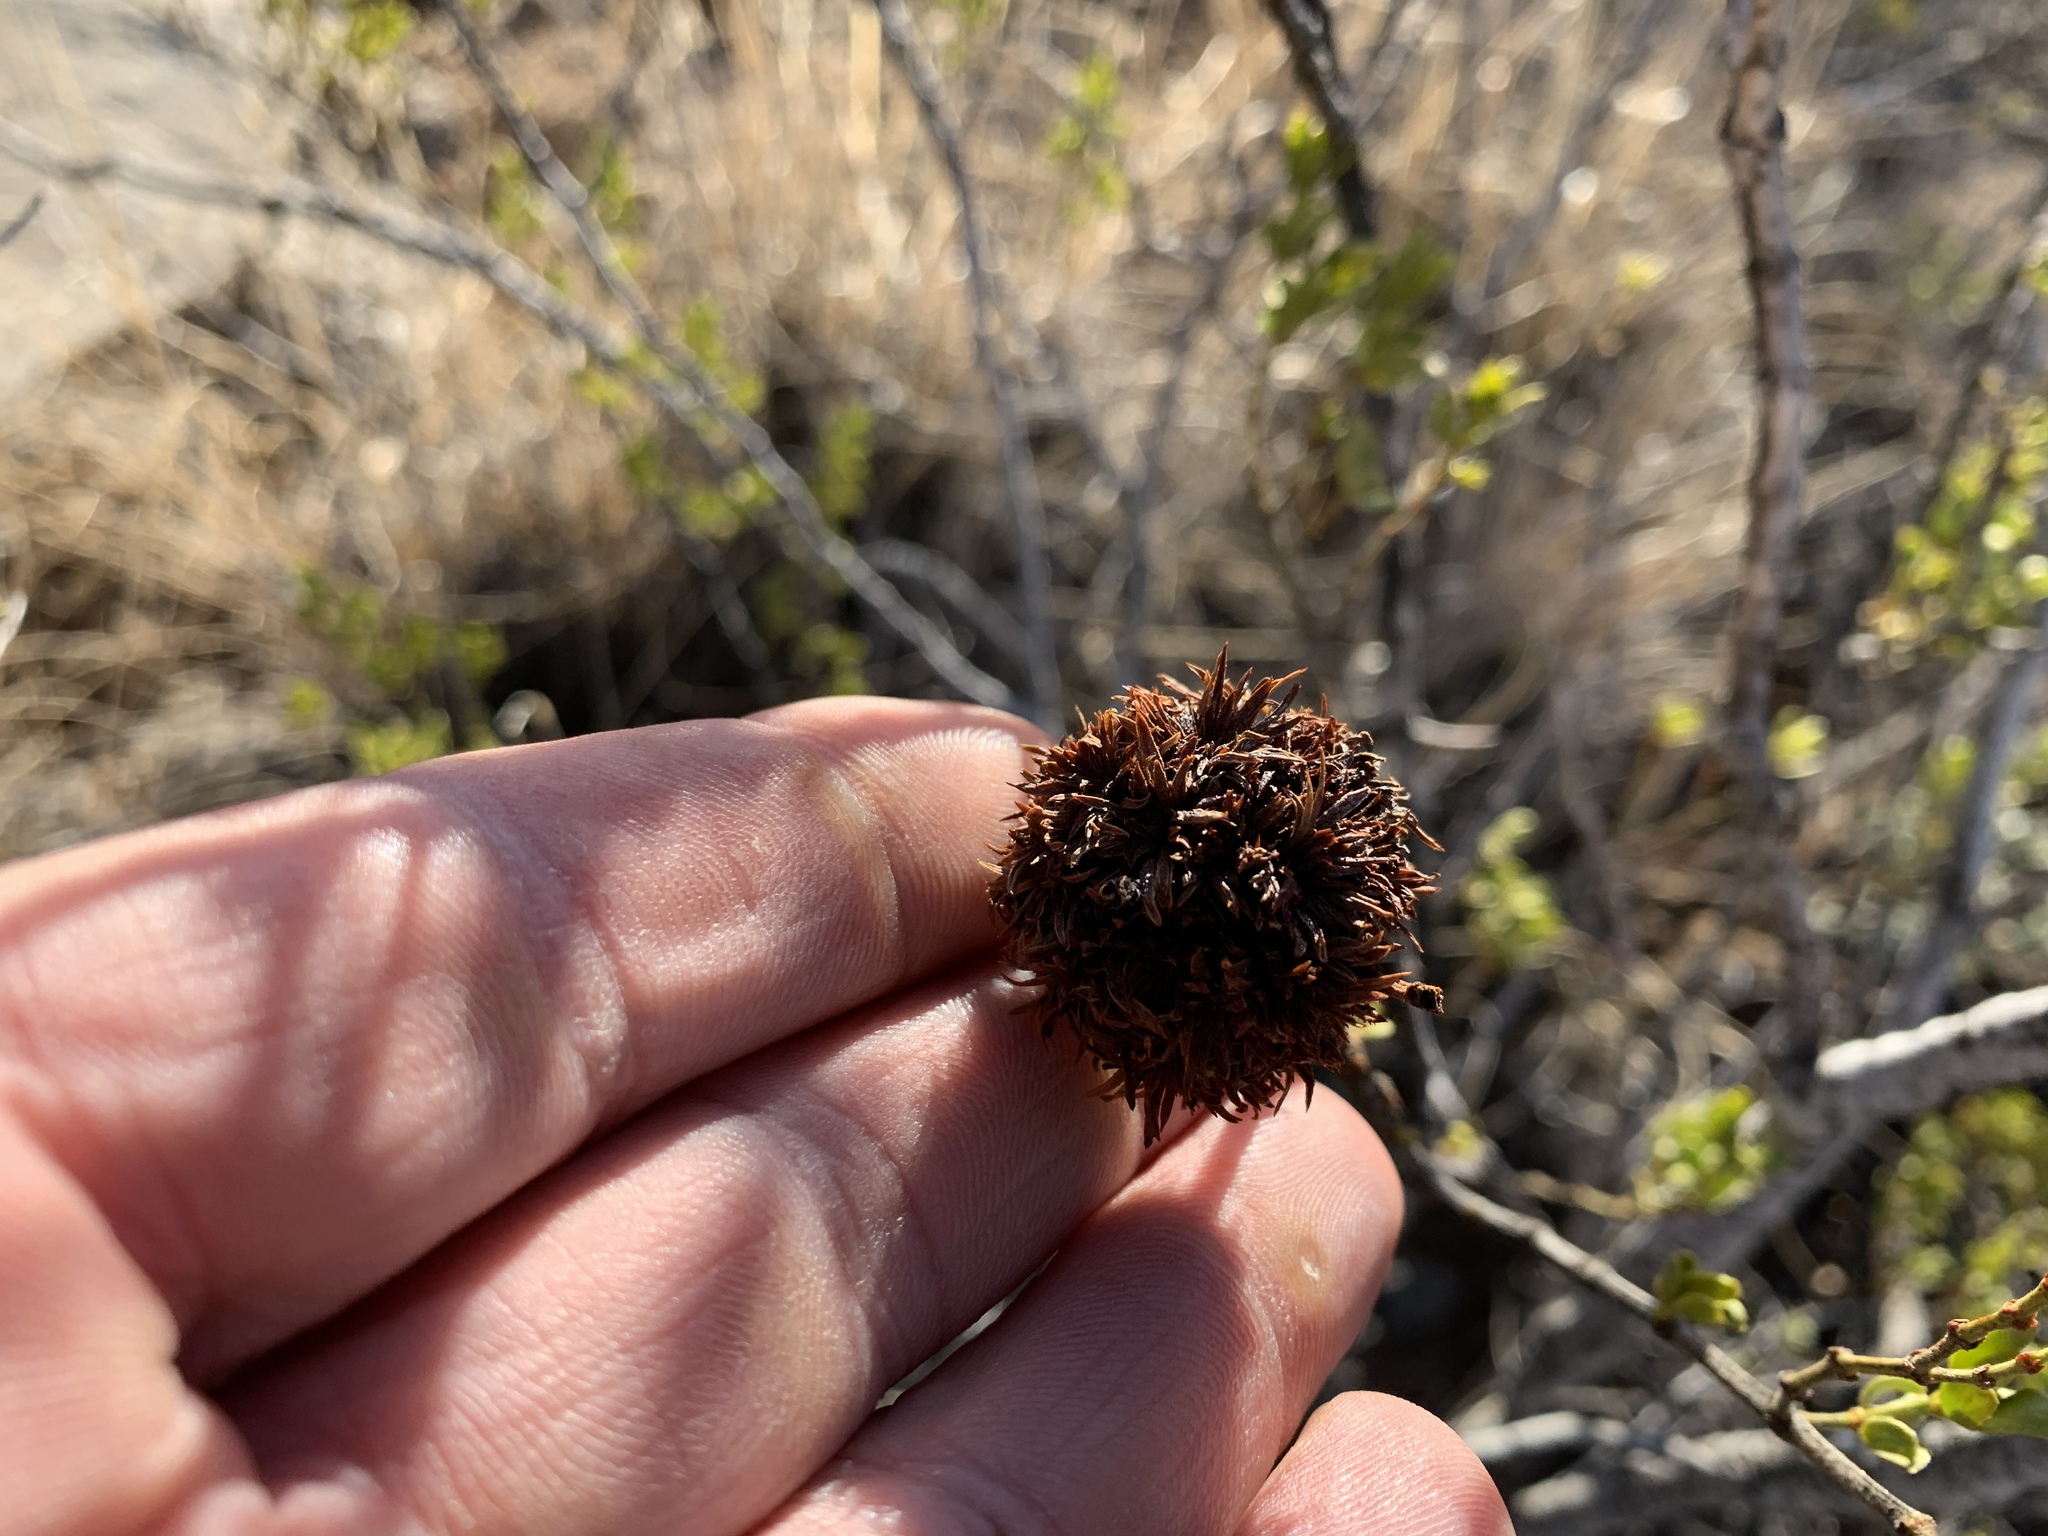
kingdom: Animalia
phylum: Arthropoda
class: Insecta
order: Diptera
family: Cecidomyiidae
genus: Asphondylia
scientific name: Asphondylia auripila
